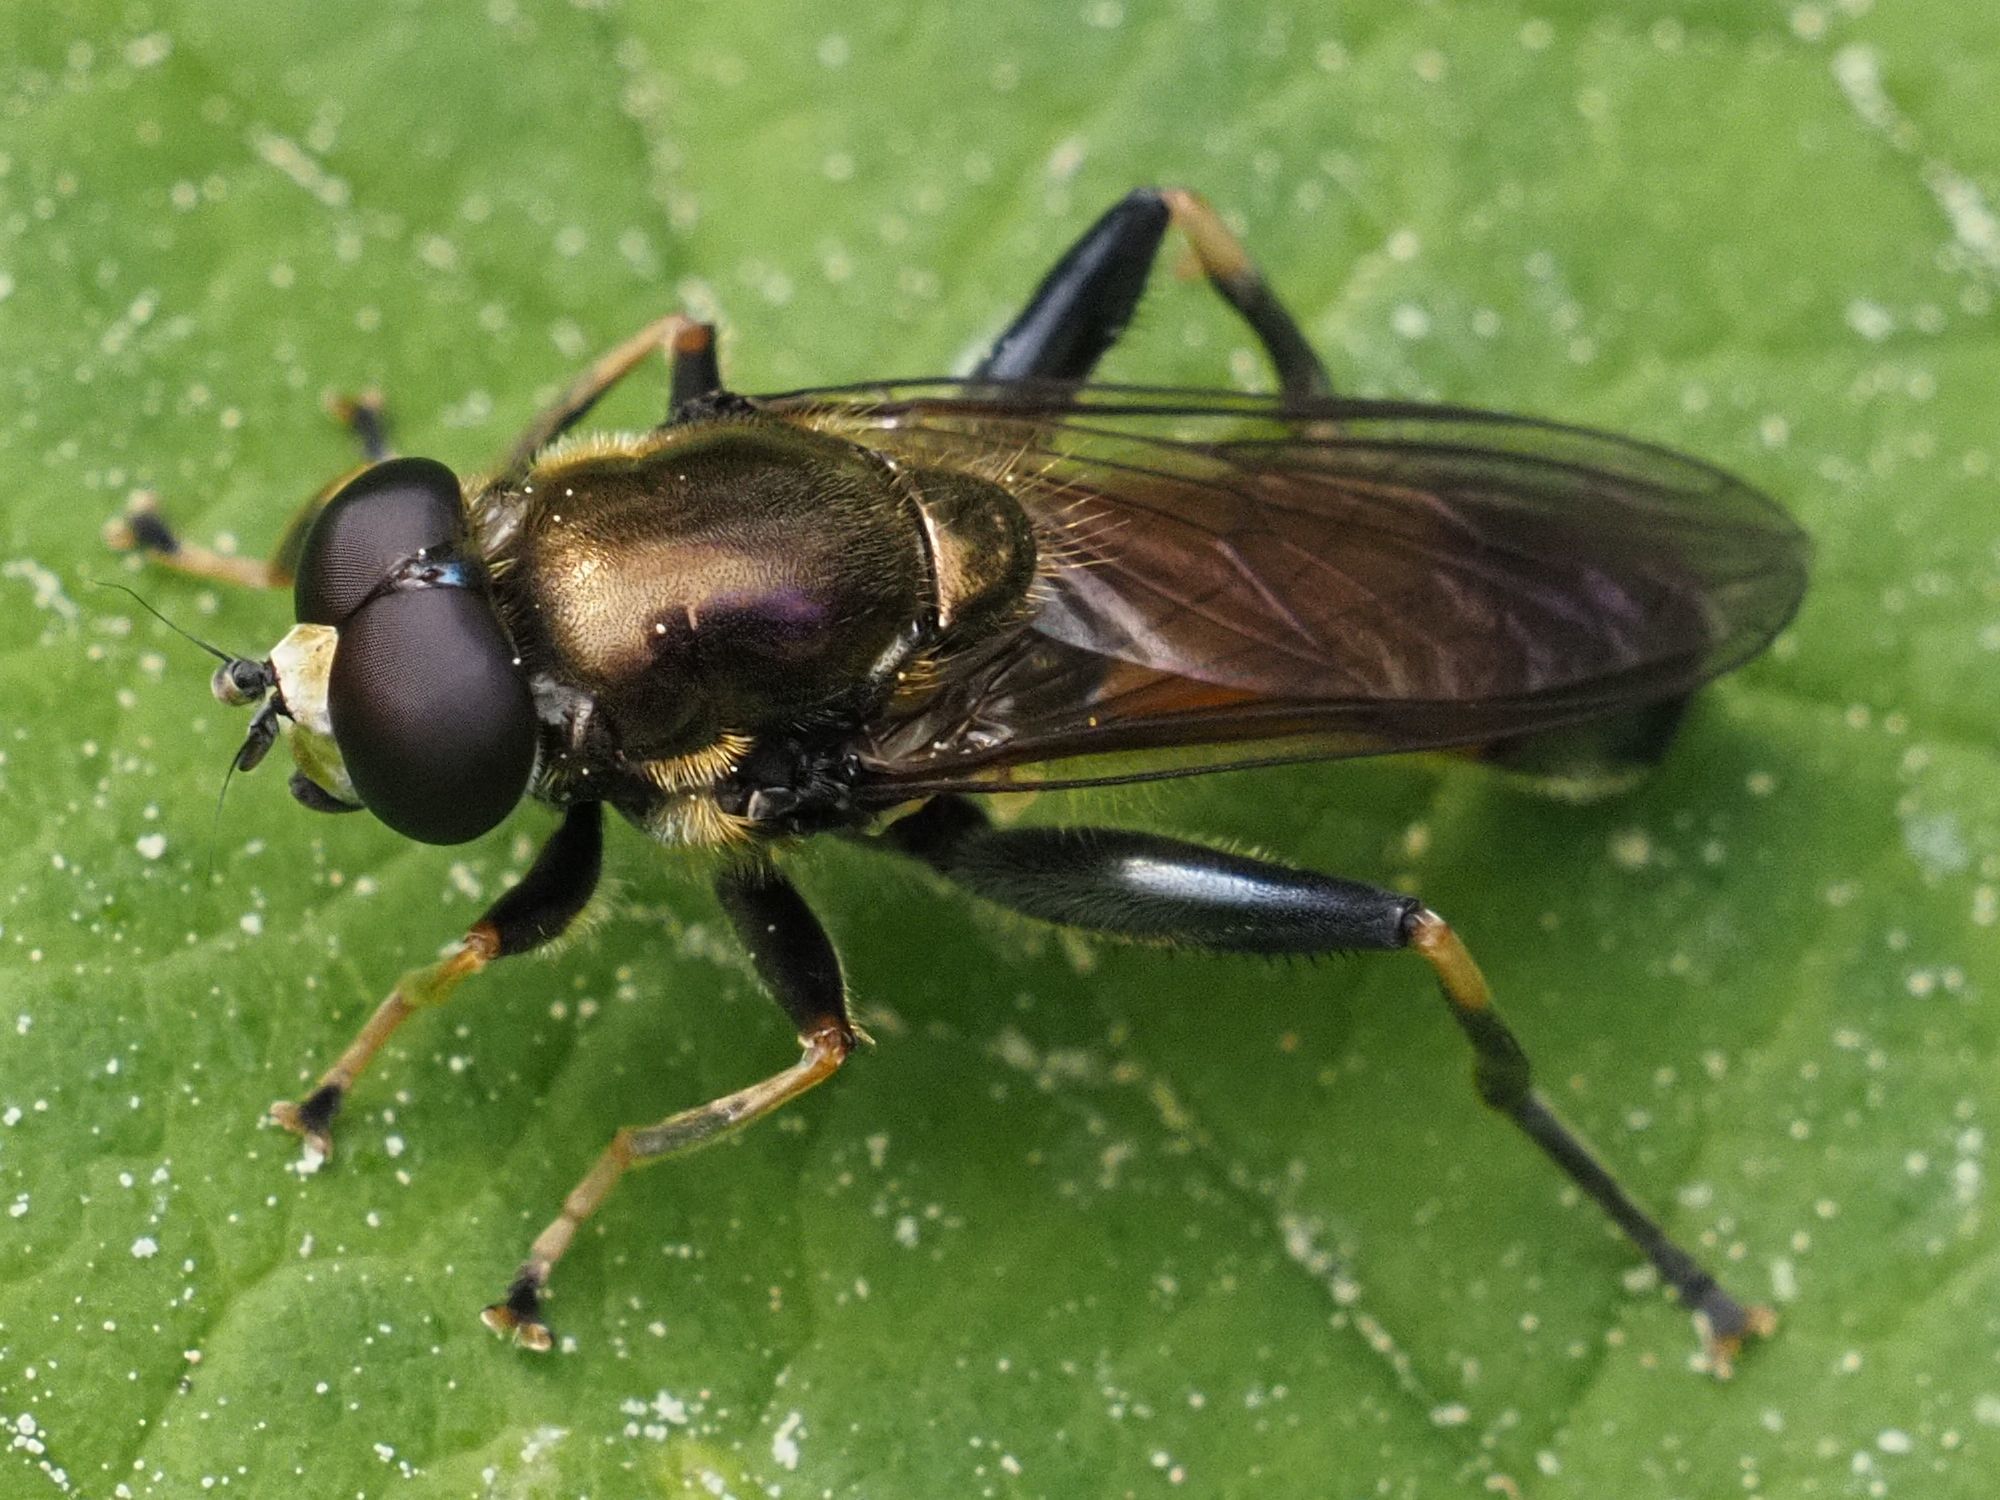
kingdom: Animalia
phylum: Arthropoda
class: Insecta
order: Diptera
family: Syrphidae
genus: Xylota
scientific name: Xylota segnis
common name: Brown-toed forest fly
